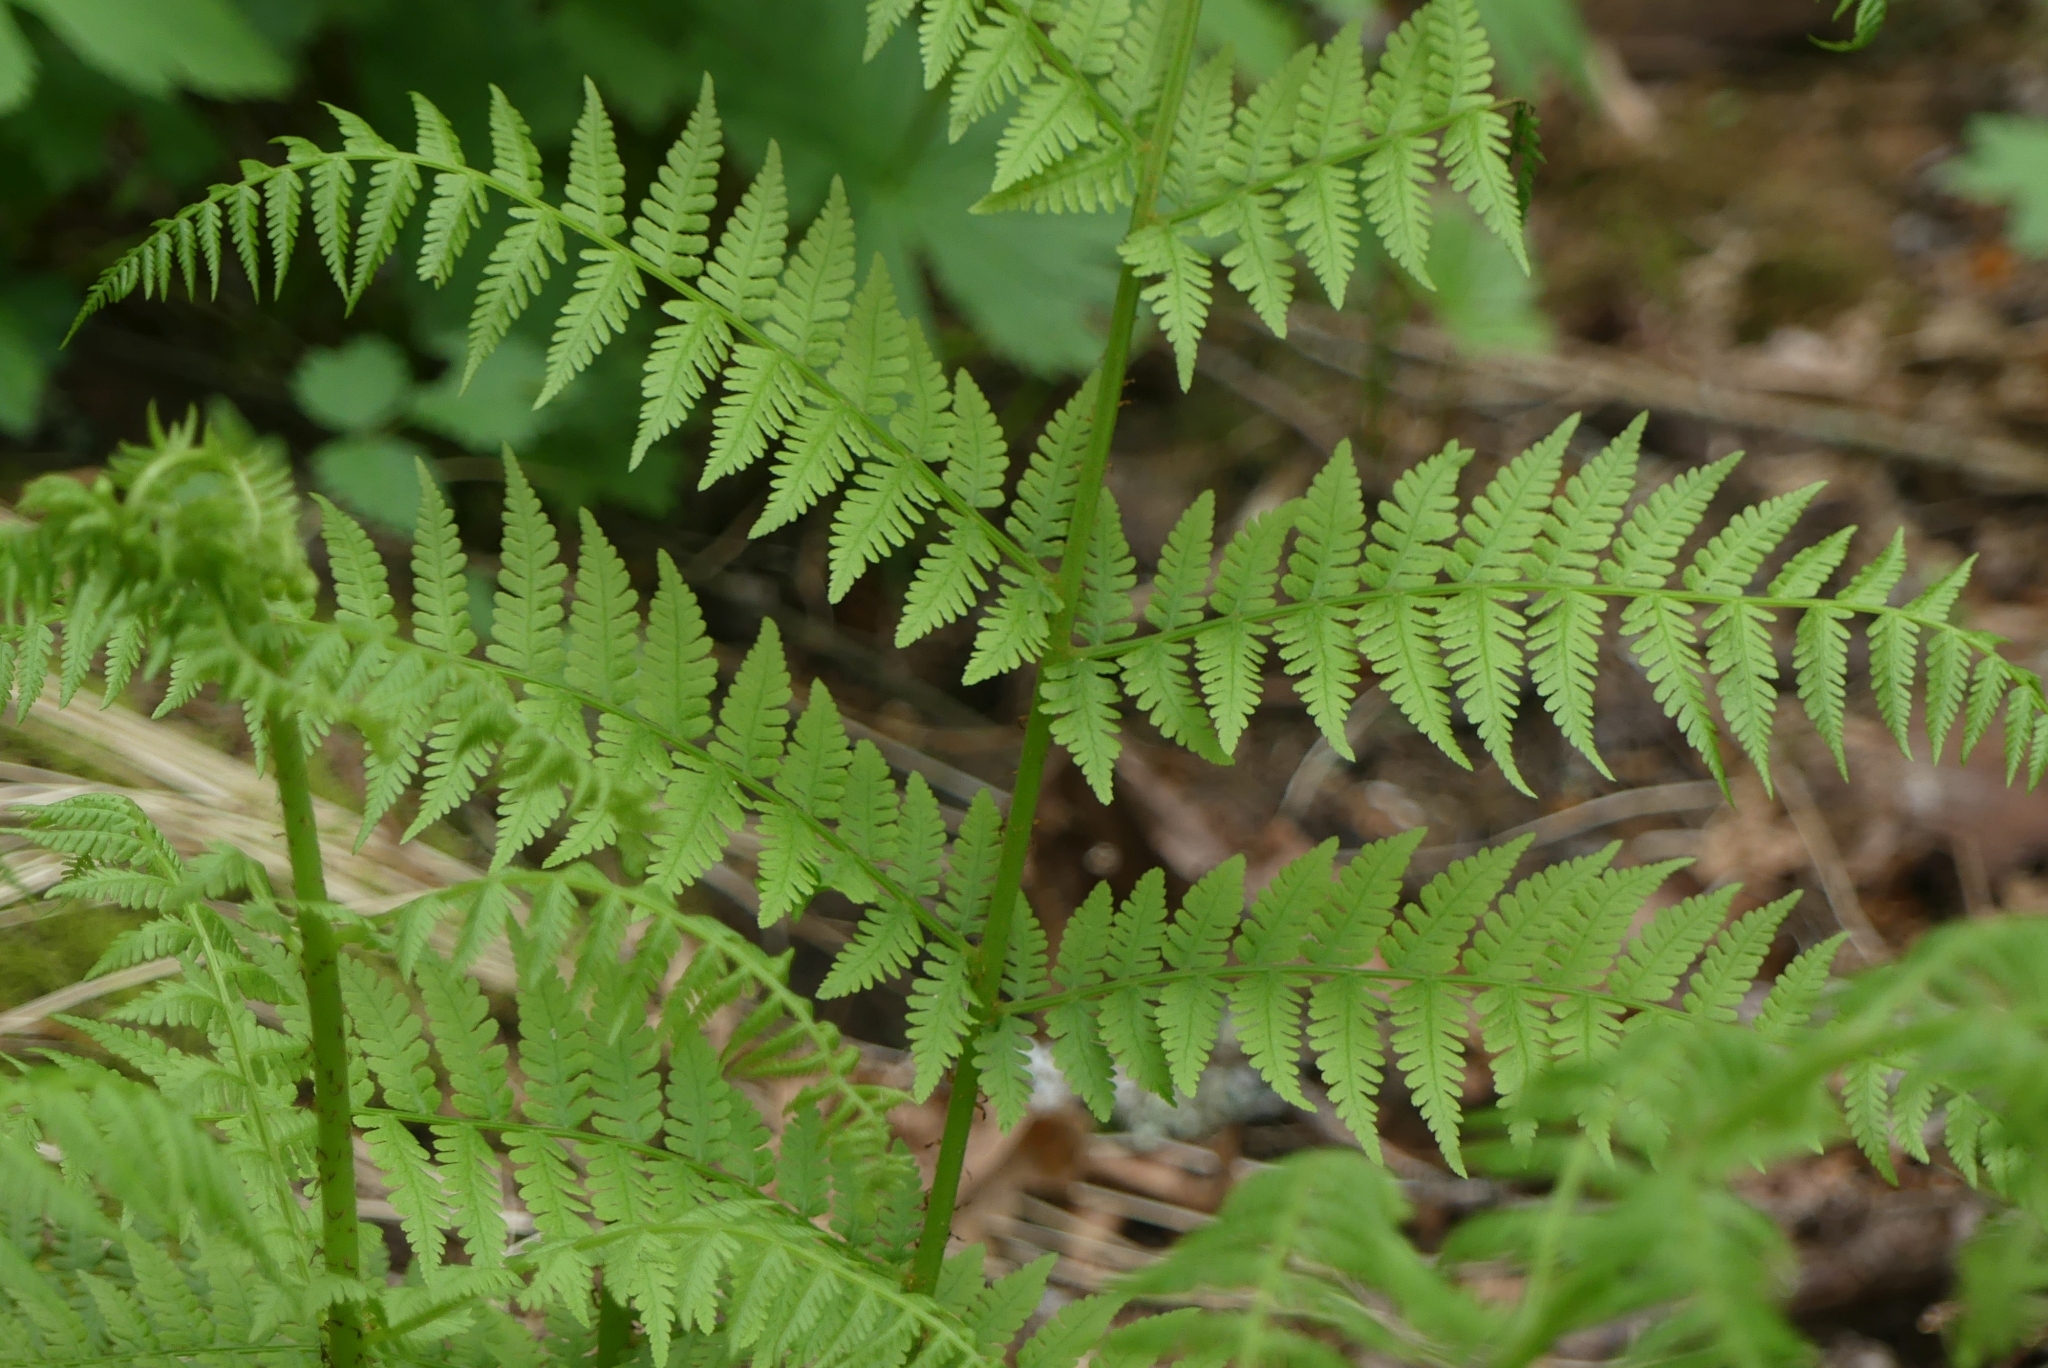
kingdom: Plantae
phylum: Tracheophyta
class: Polypodiopsida
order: Polypodiales
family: Athyriaceae
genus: Athyrium
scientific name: Athyrium filix-femina
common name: Lady fern
